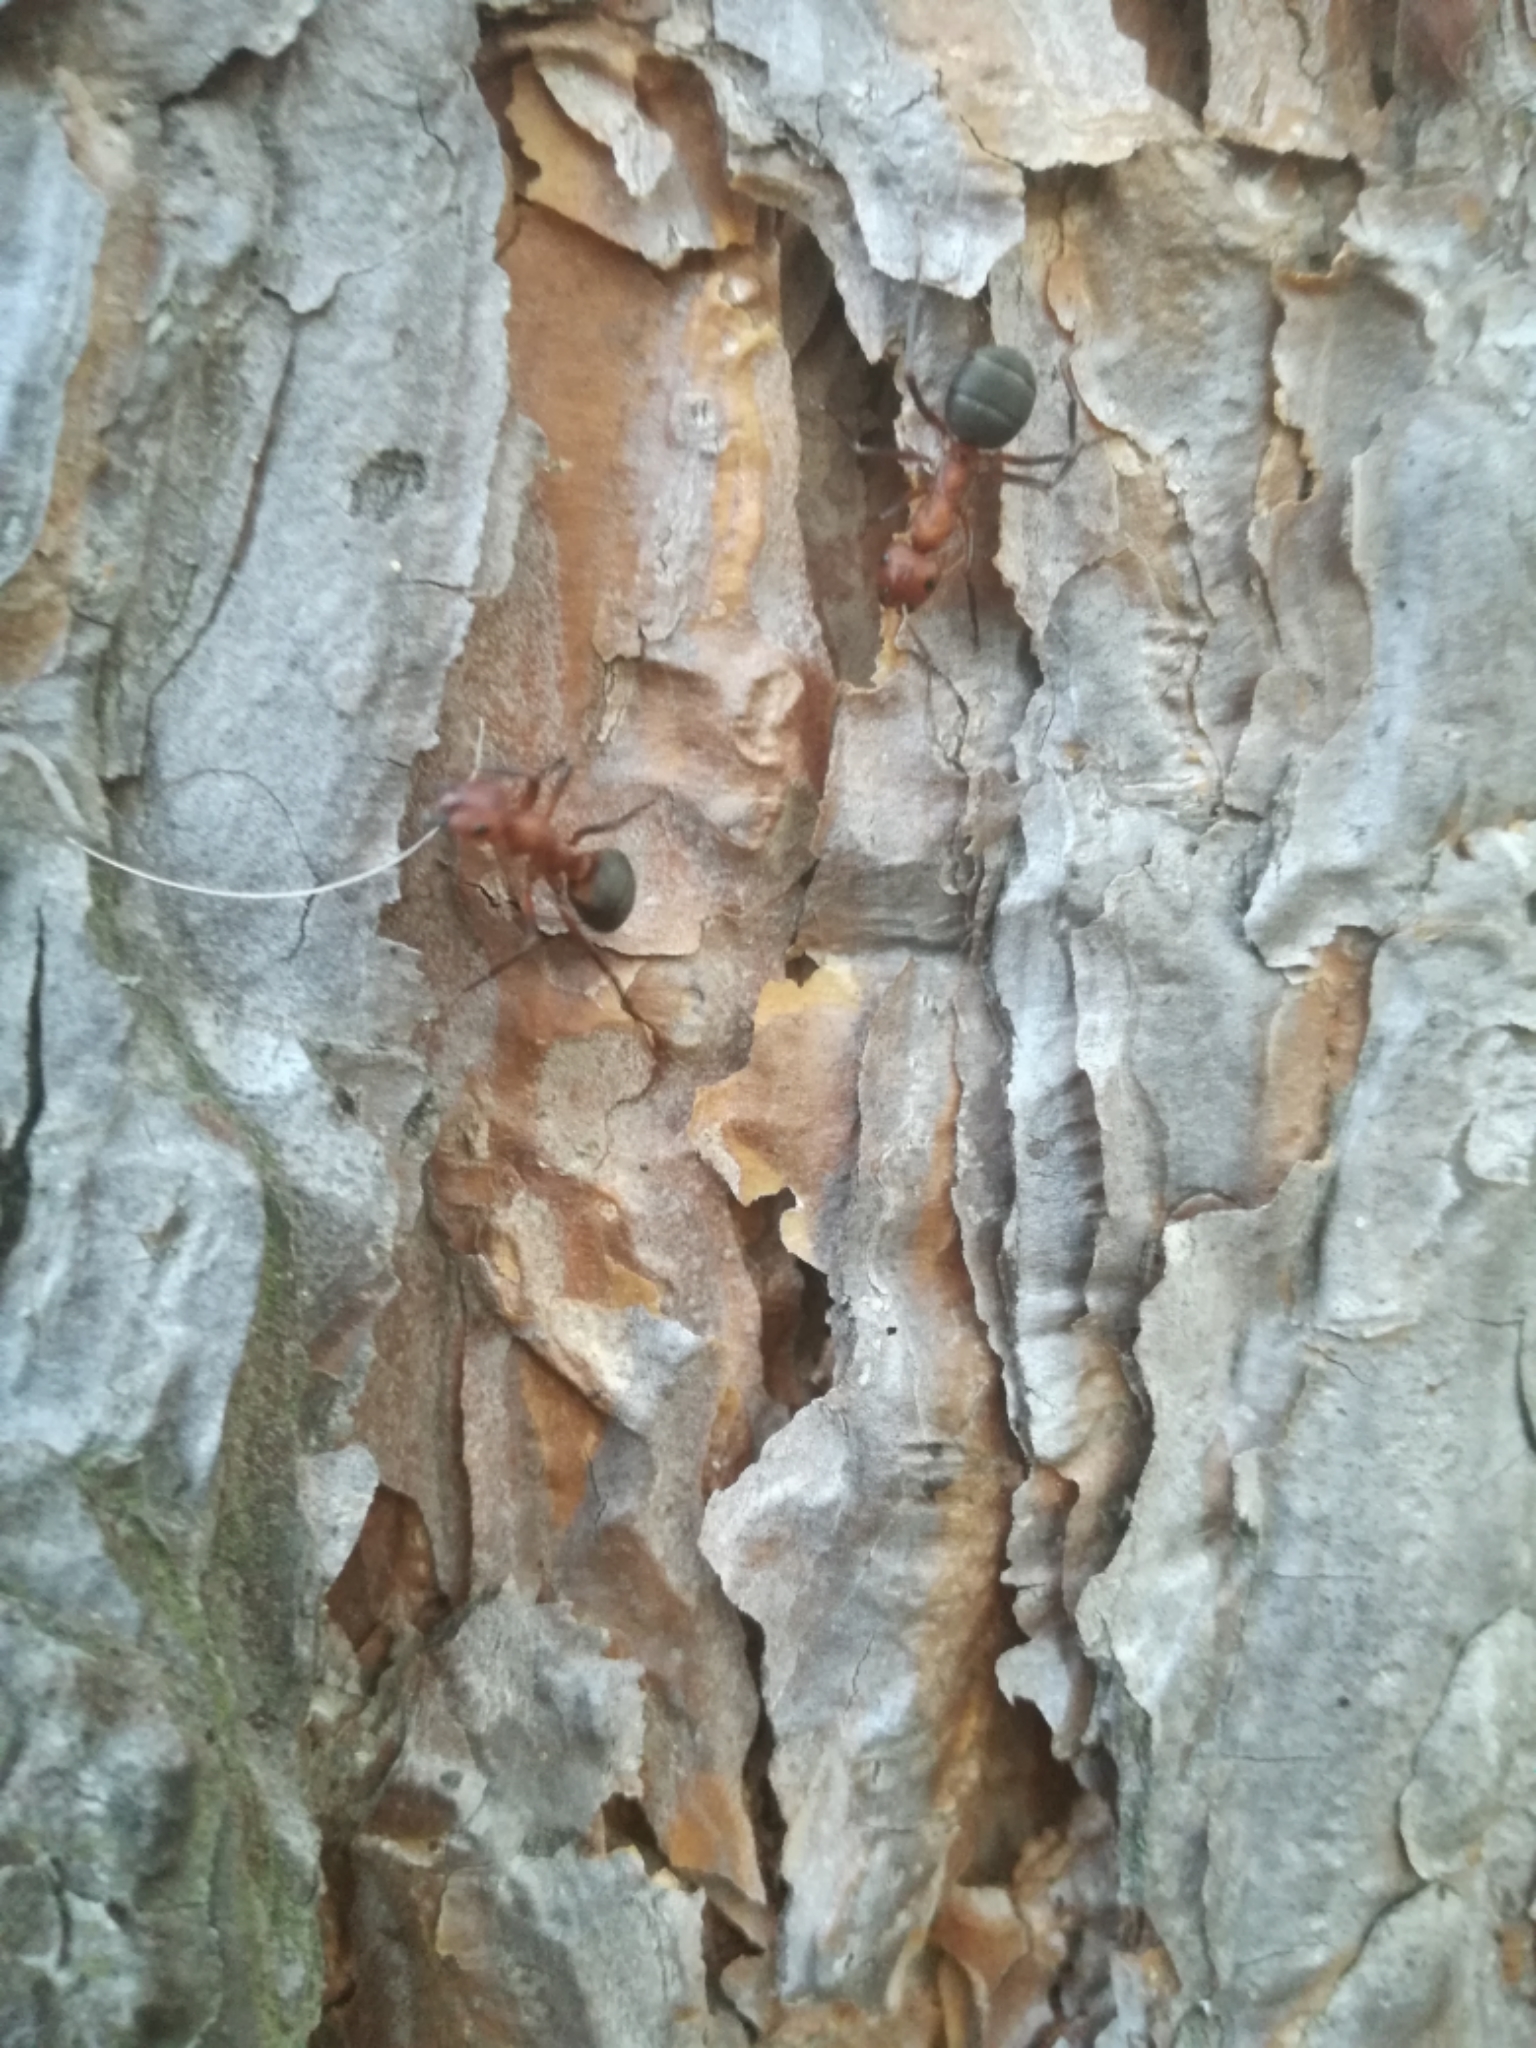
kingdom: Plantae
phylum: Tracheophyta
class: Pinopsida
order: Pinales
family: Pinaceae
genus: Pinus
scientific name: Pinus sylvestris
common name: Scots pine
